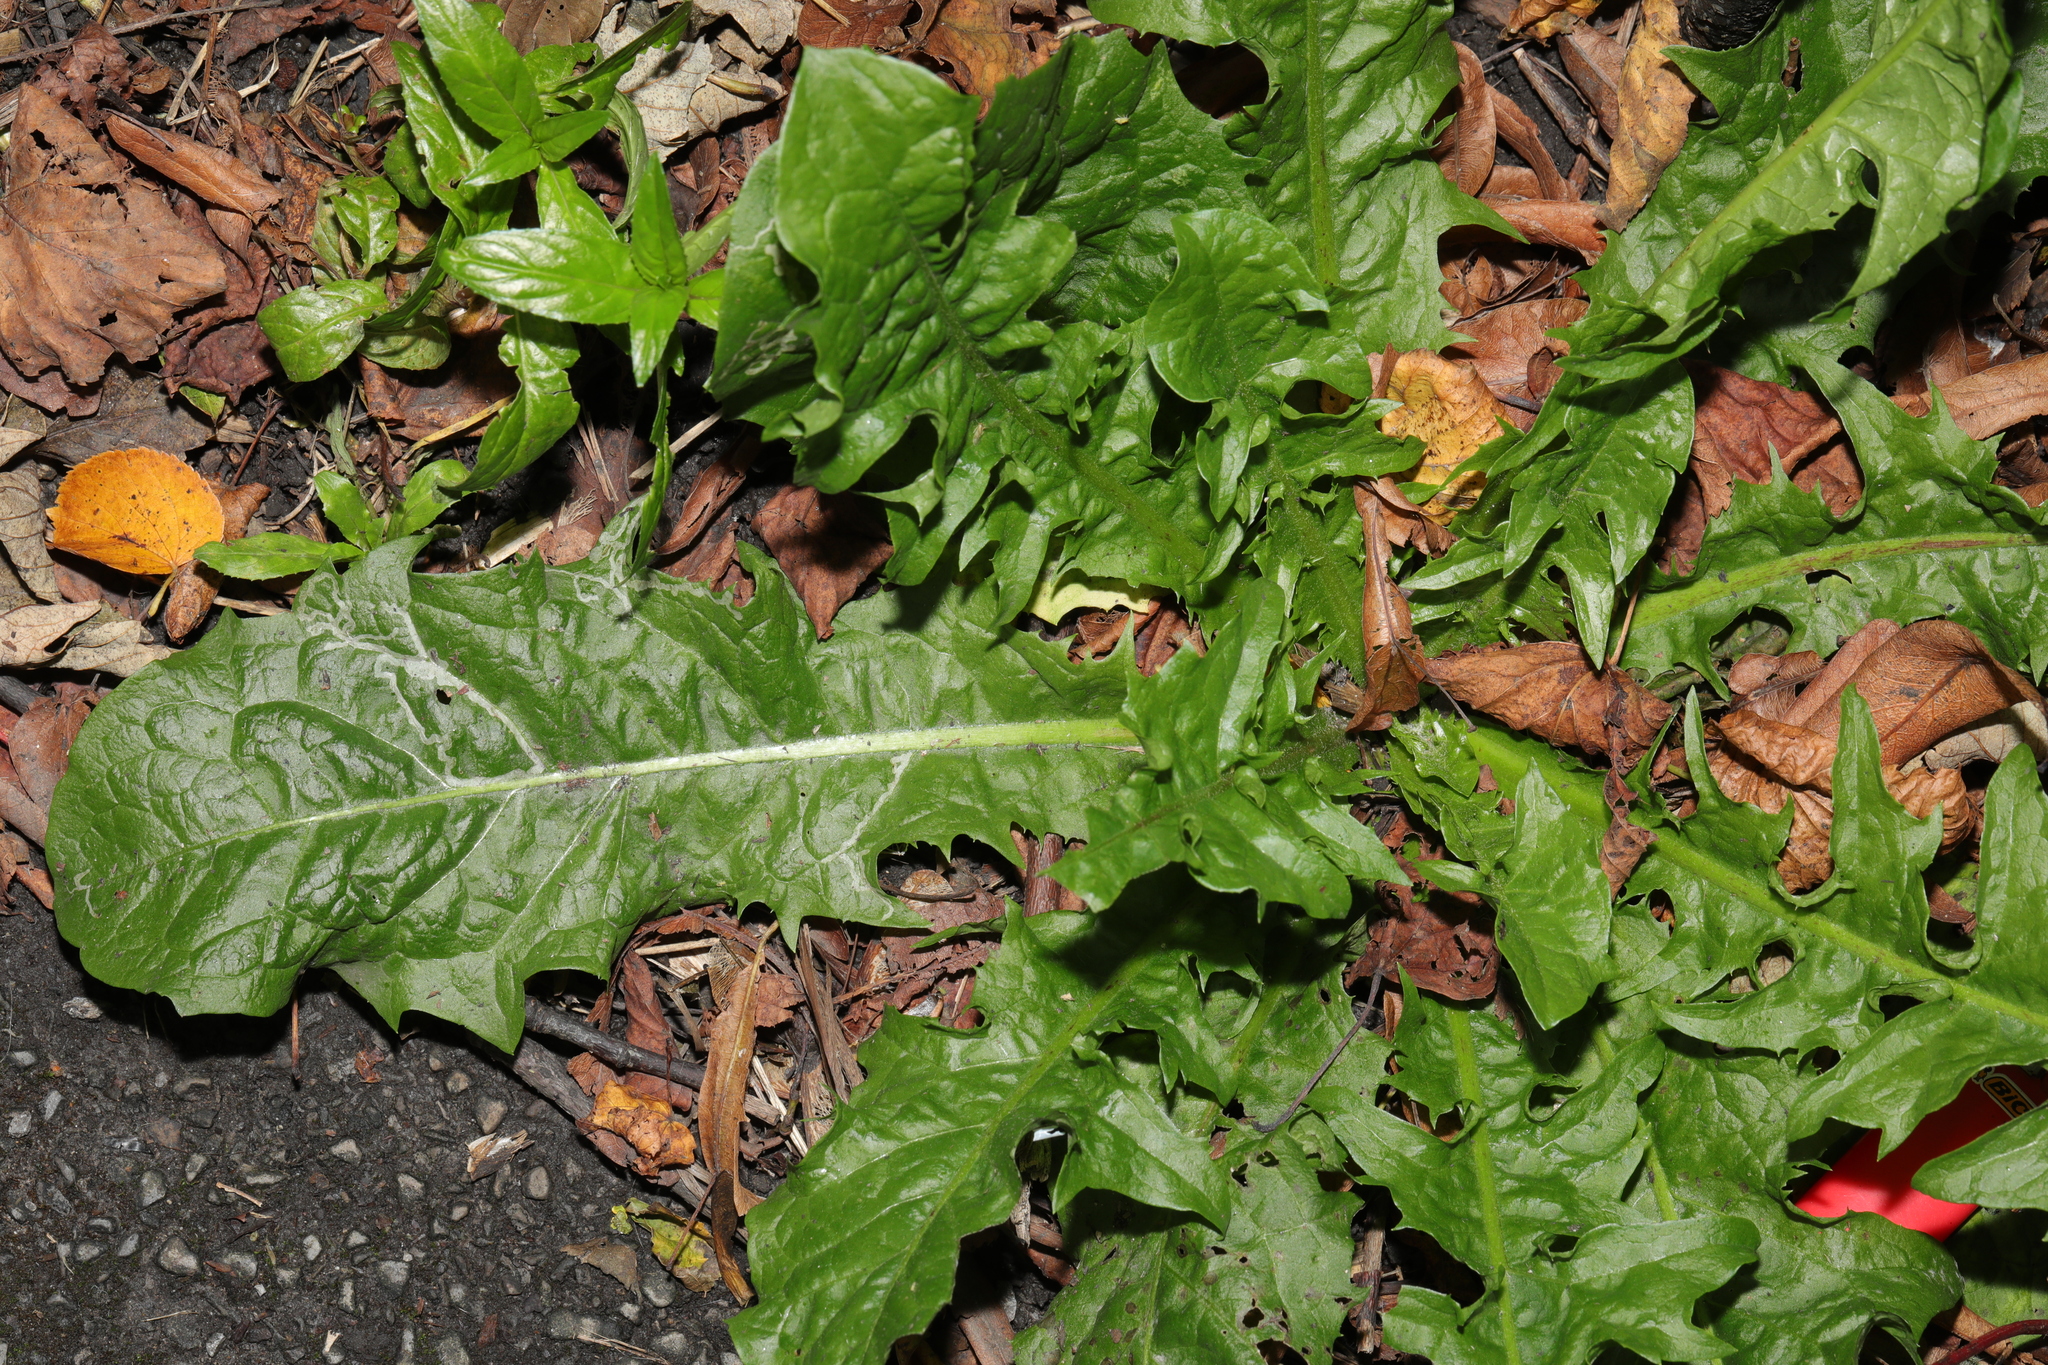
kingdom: Plantae
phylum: Tracheophyta
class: Magnoliopsida
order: Asterales
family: Asteraceae
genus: Taraxacum
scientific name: Taraxacum officinale
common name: Common dandelion
